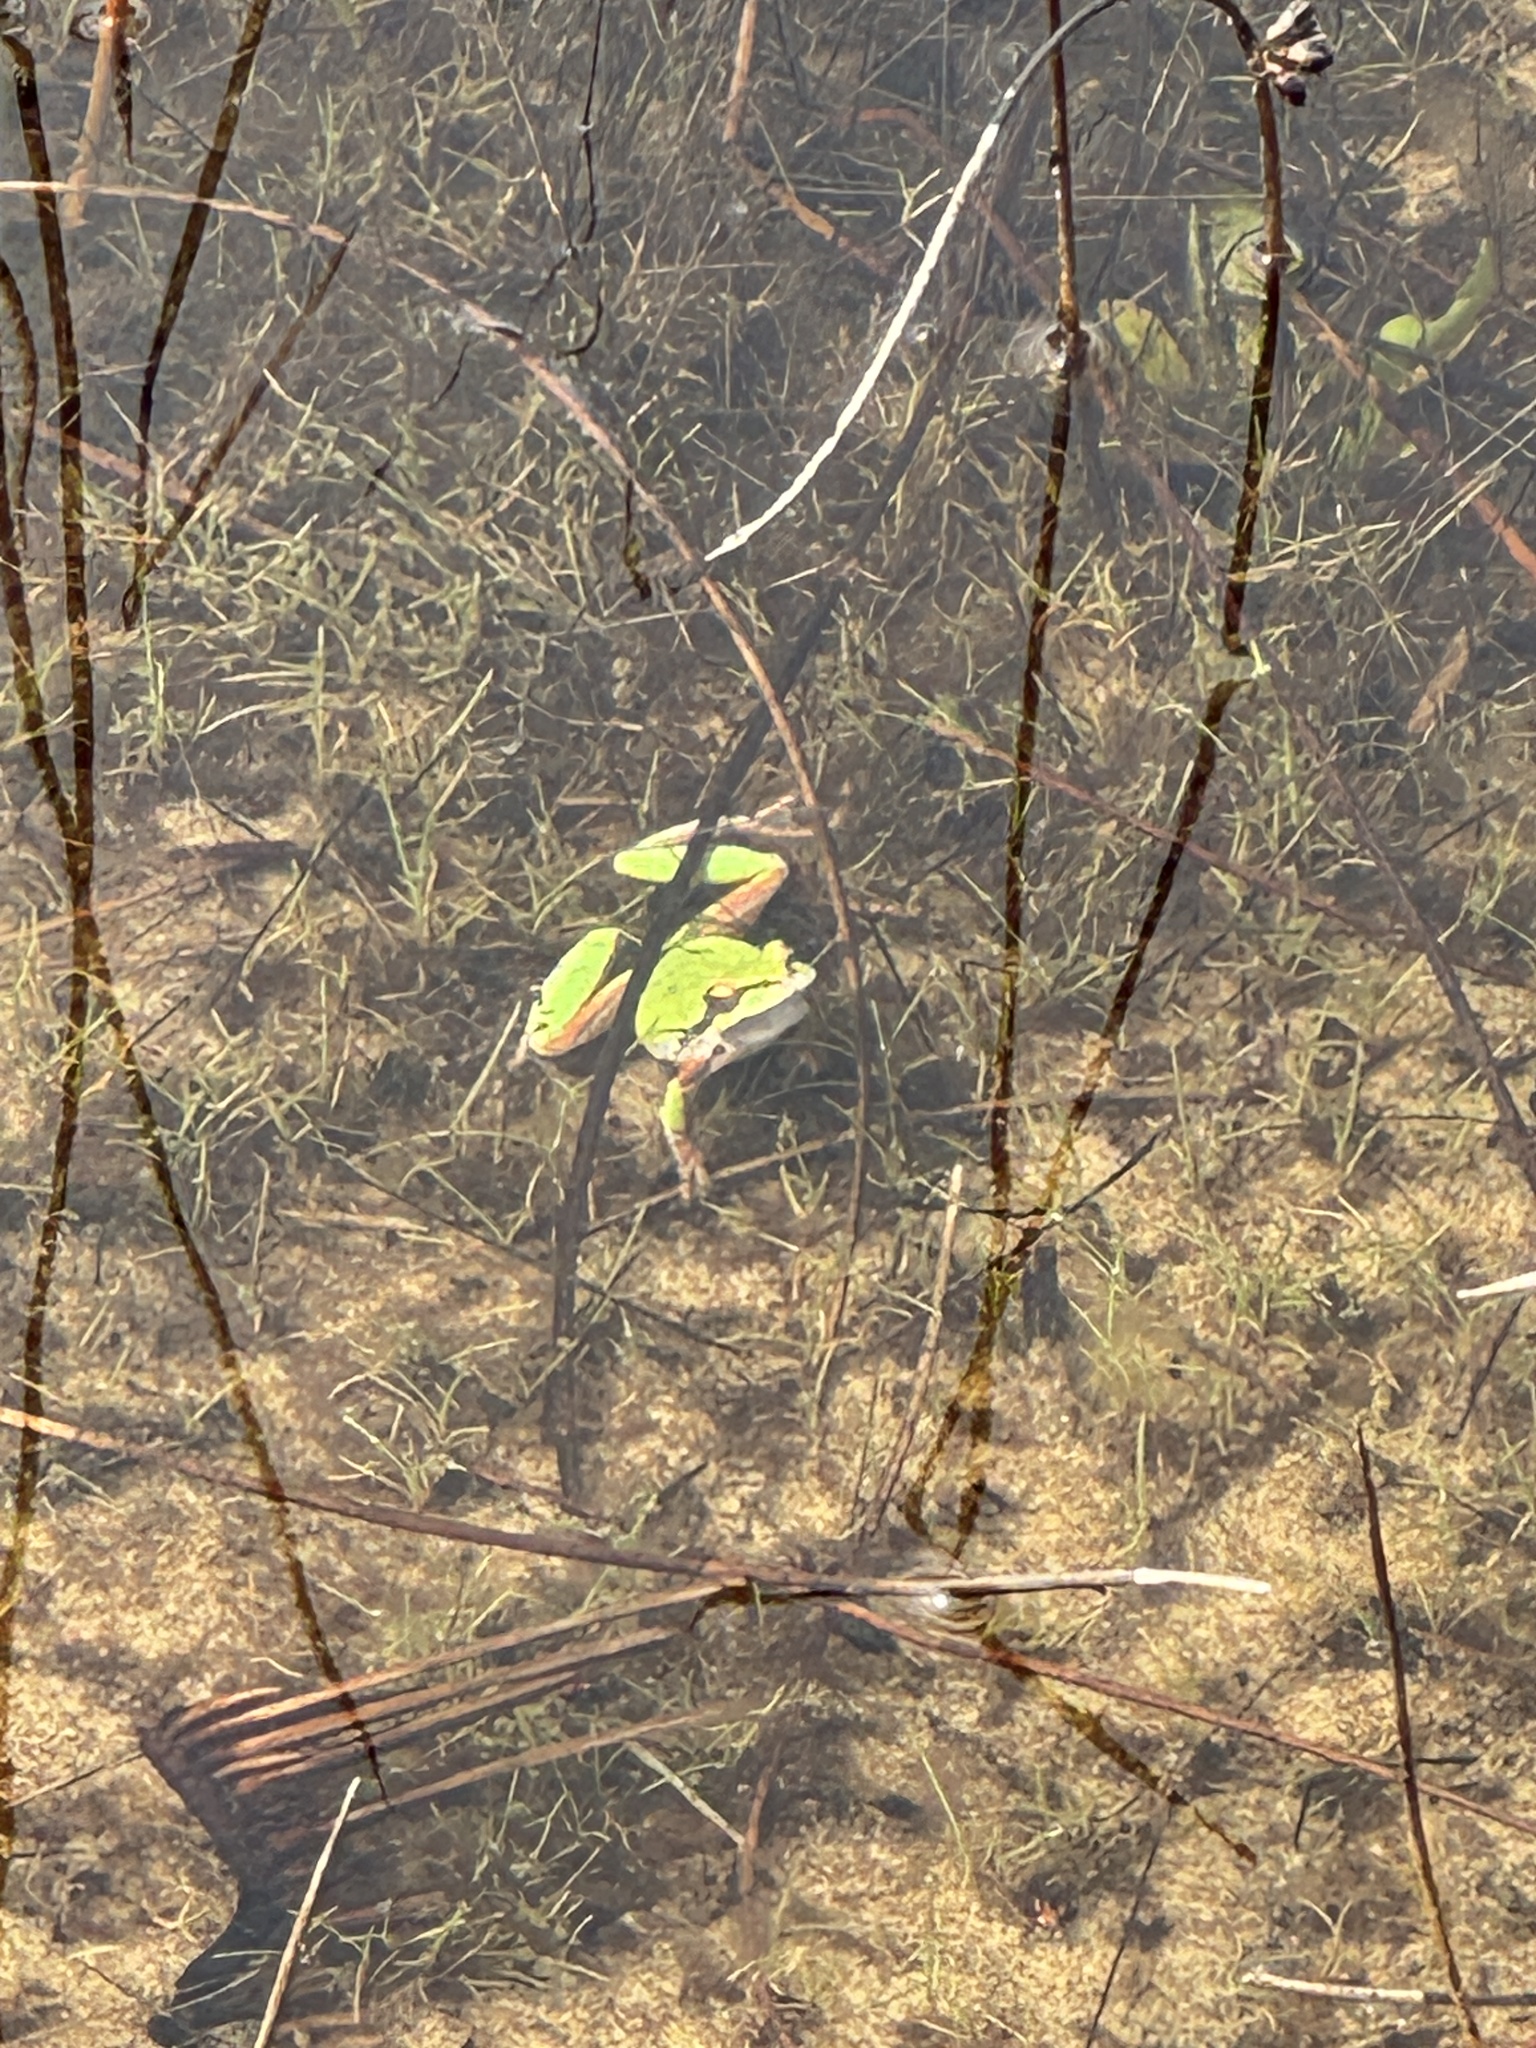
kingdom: Animalia
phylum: Chordata
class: Amphibia
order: Anura
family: Hylidae
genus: Pseudacris
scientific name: Pseudacris regilla
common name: Pacific chorus frog
